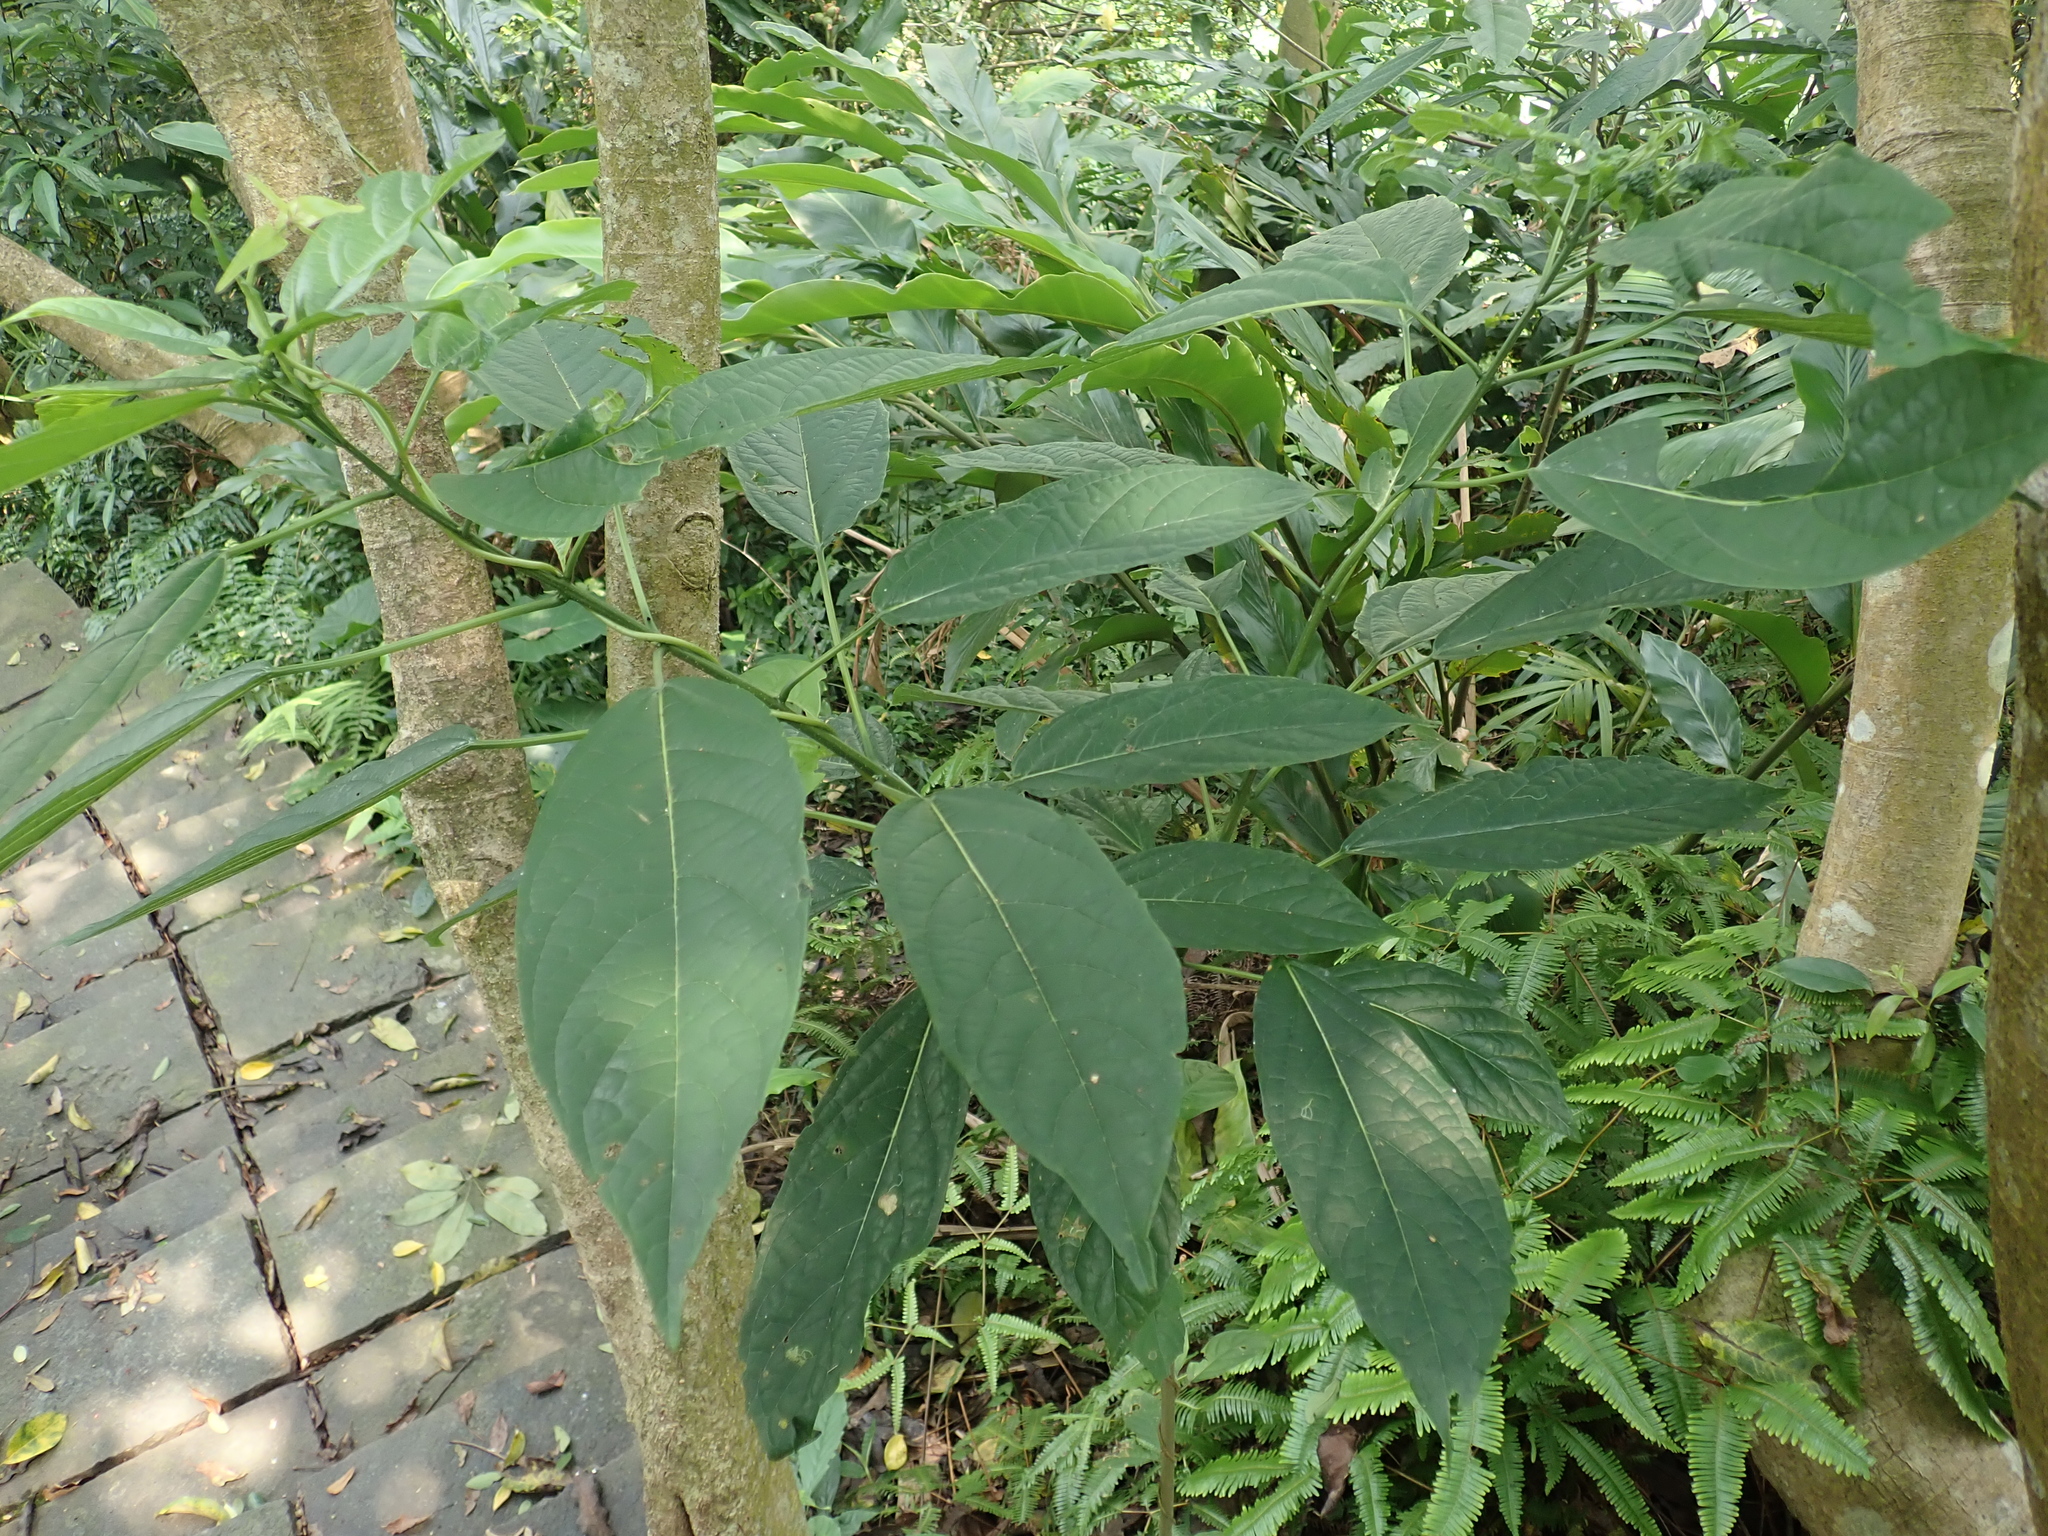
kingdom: Plantae
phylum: Tracheophyta
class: Magnoliopsida
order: Lamiales
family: Lamiaceae
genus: Clerodendrum
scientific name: Clerodendrum cyrtophyllum
